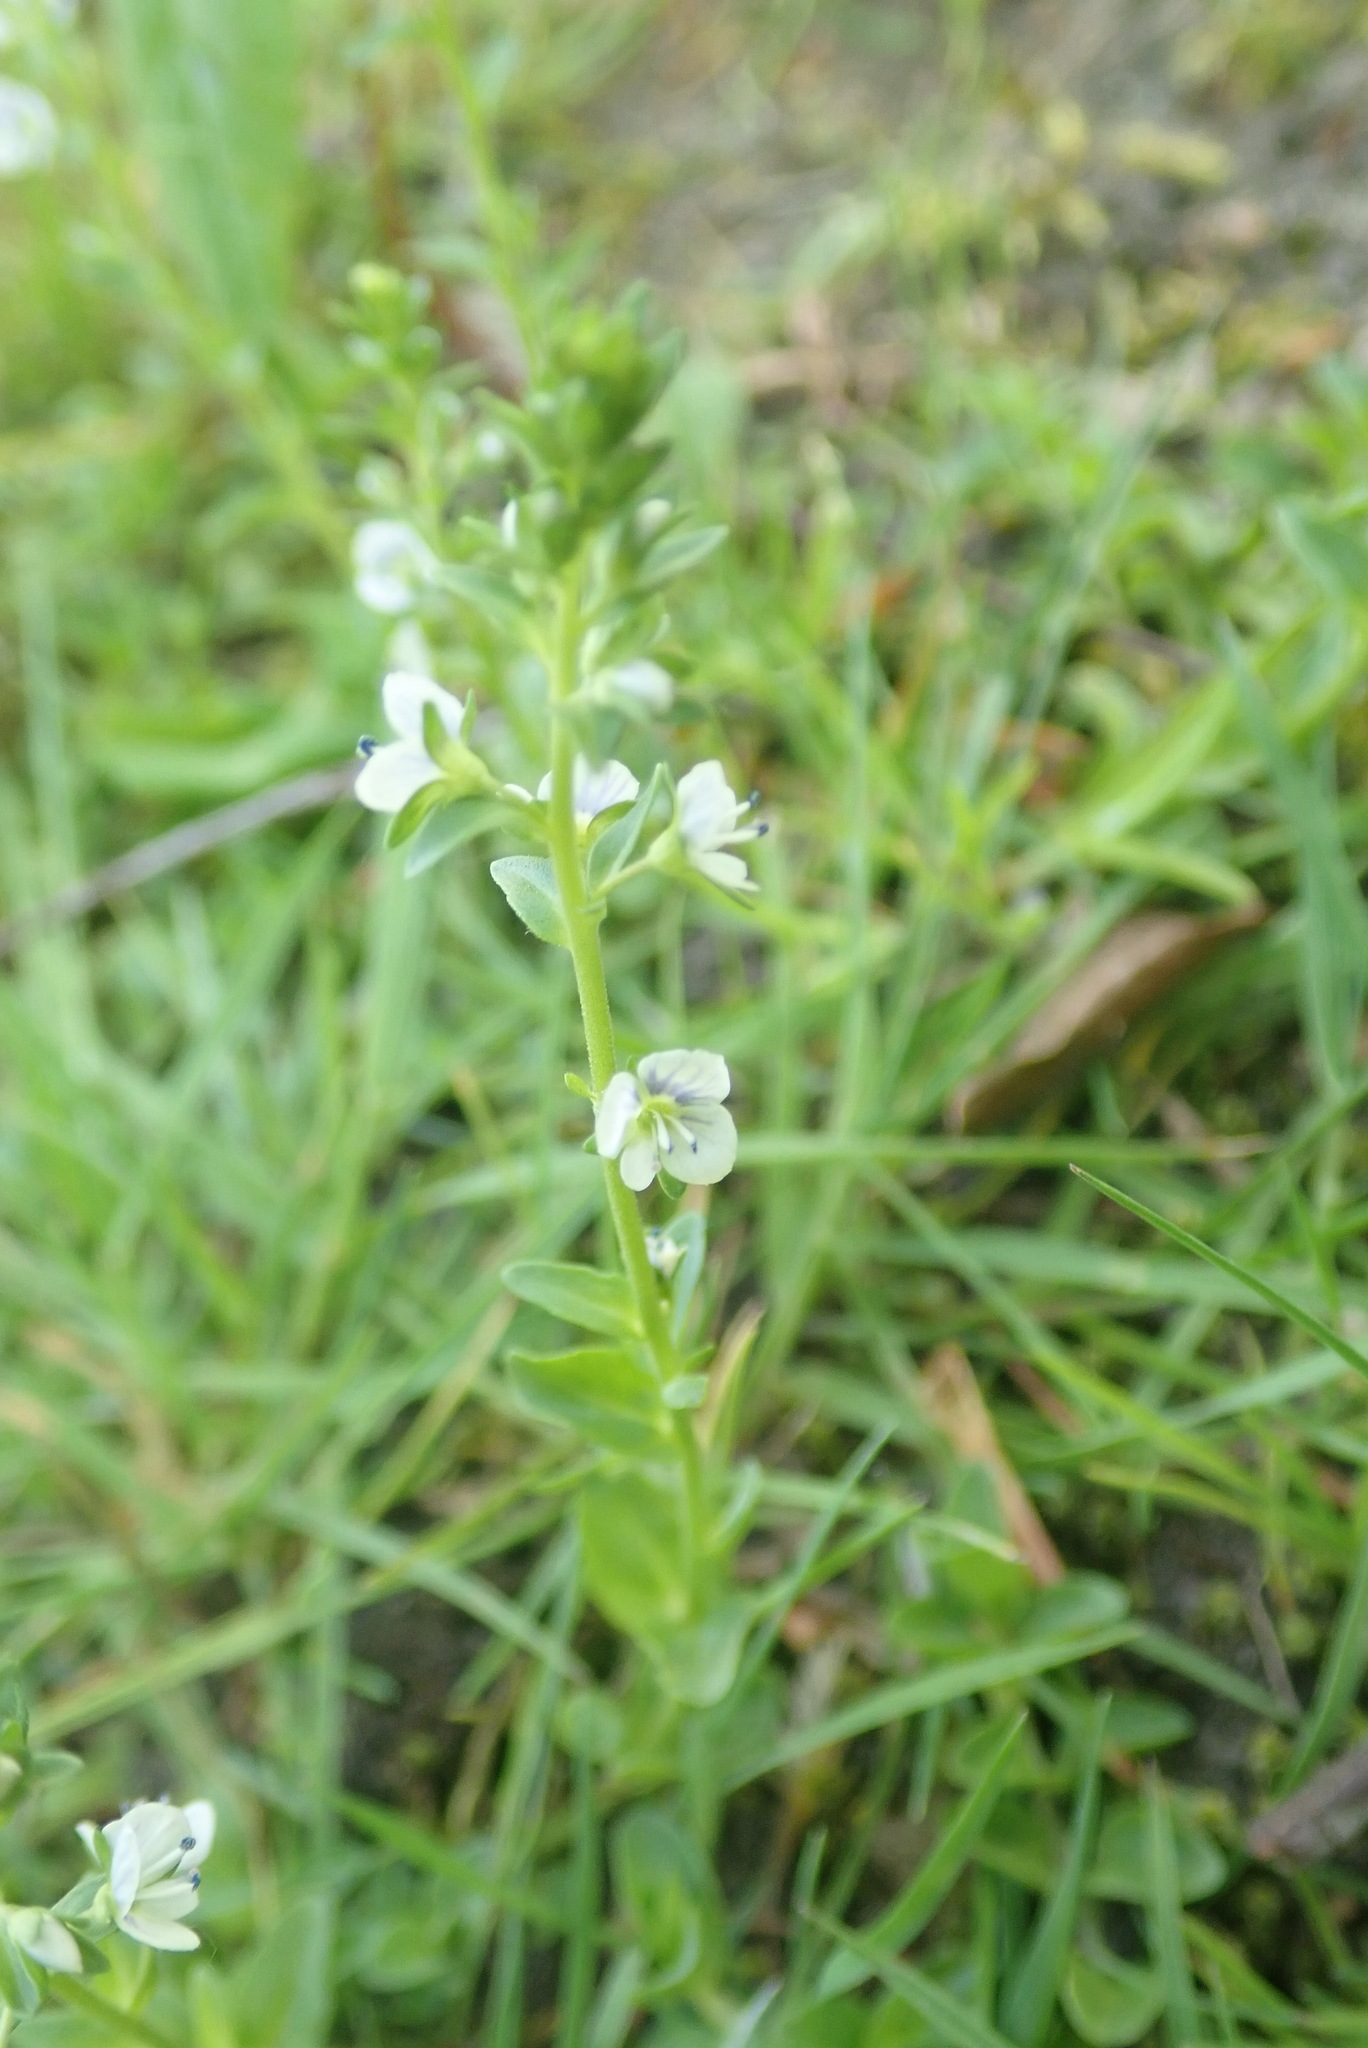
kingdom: Plantae
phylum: Tracheophyta
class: Magnoliopsida
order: Lamiales
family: Plantaginaceae
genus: Veronica
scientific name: Veronica serpyllifolia
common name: Thyme-leaved speedwell
